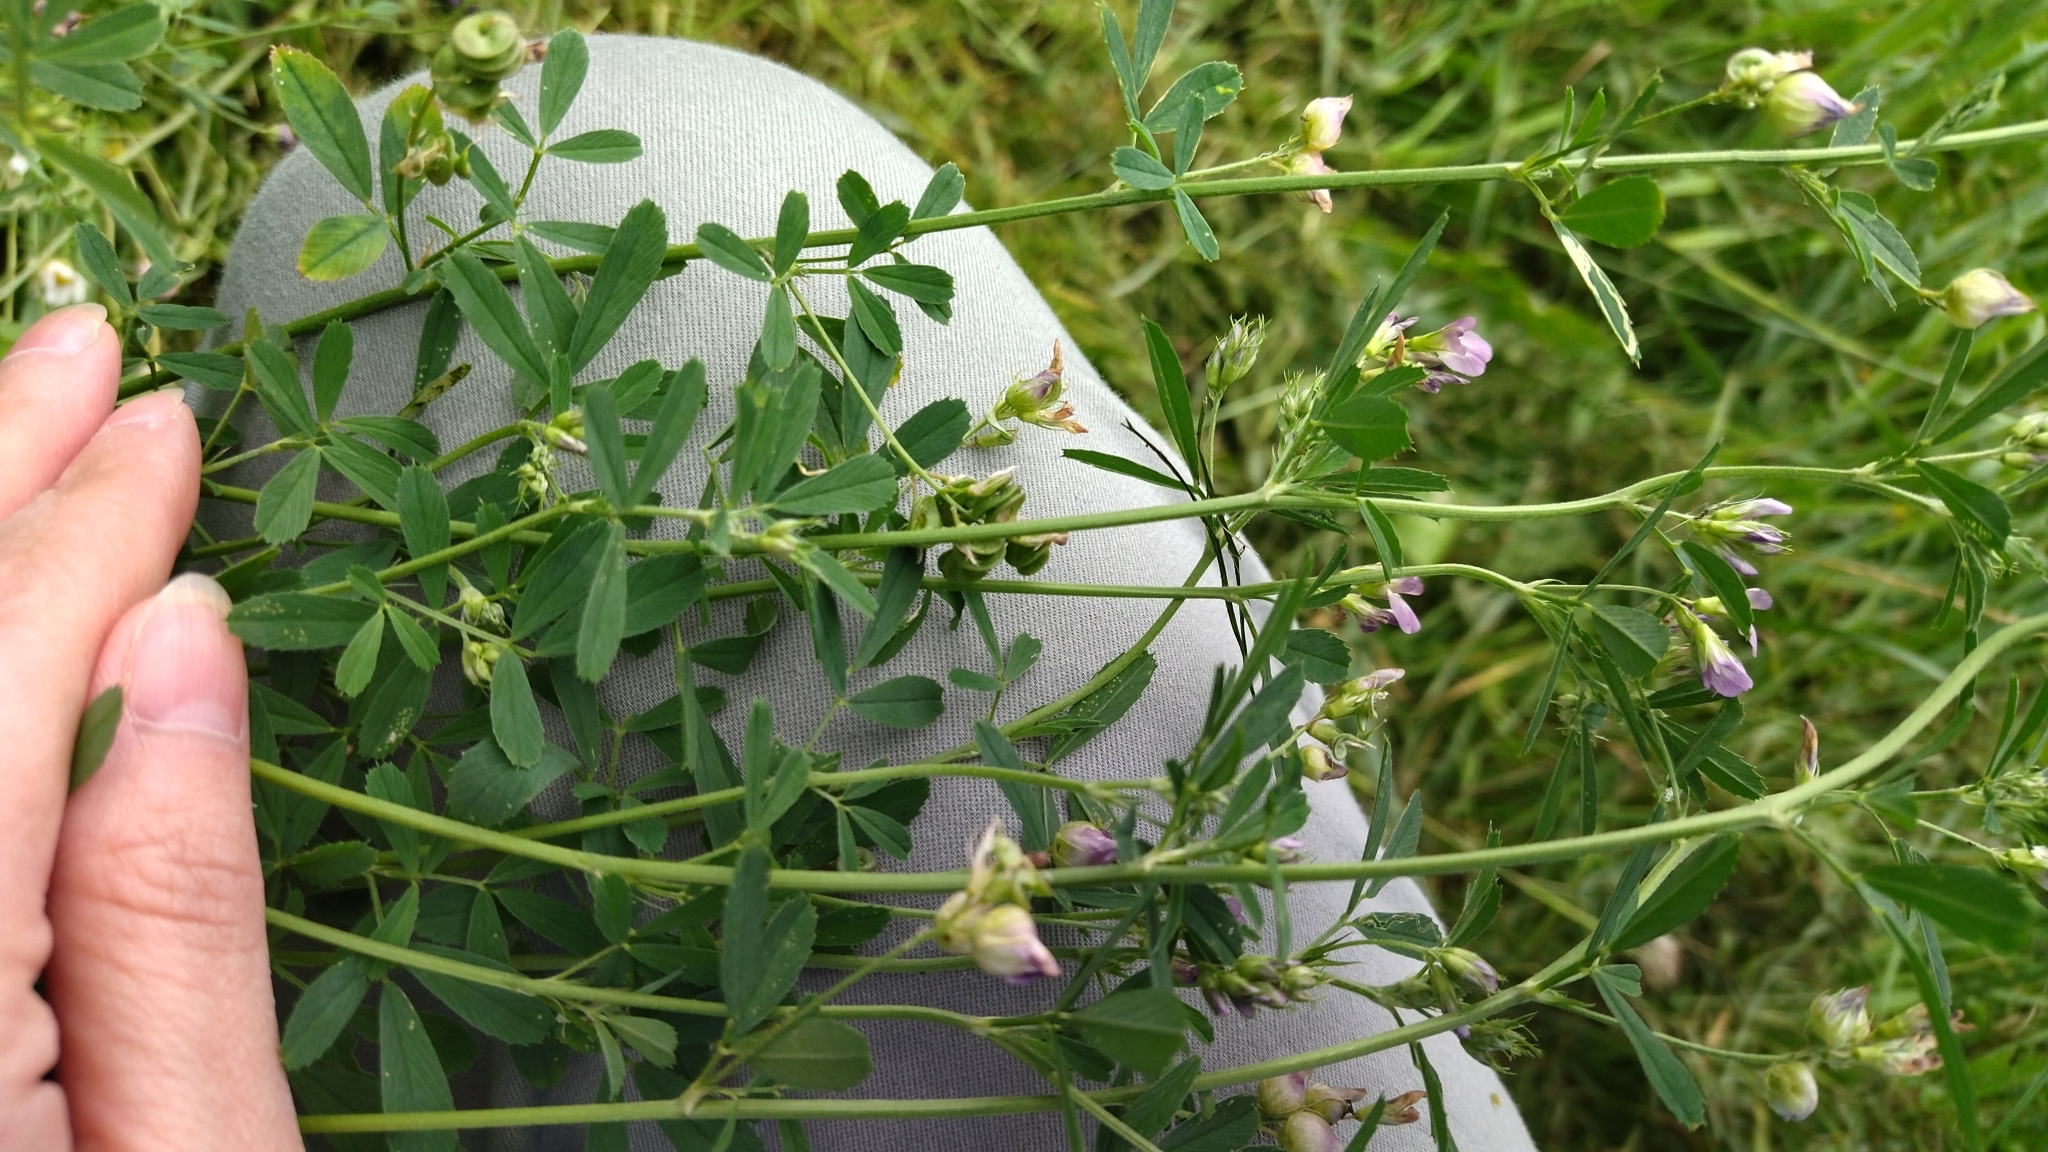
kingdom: Plantae
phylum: Tracheophyta
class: Magnoliopsida
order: Fabales
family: Fabaceae
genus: Medicago
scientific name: Medicago sativa
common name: Alfalfa
